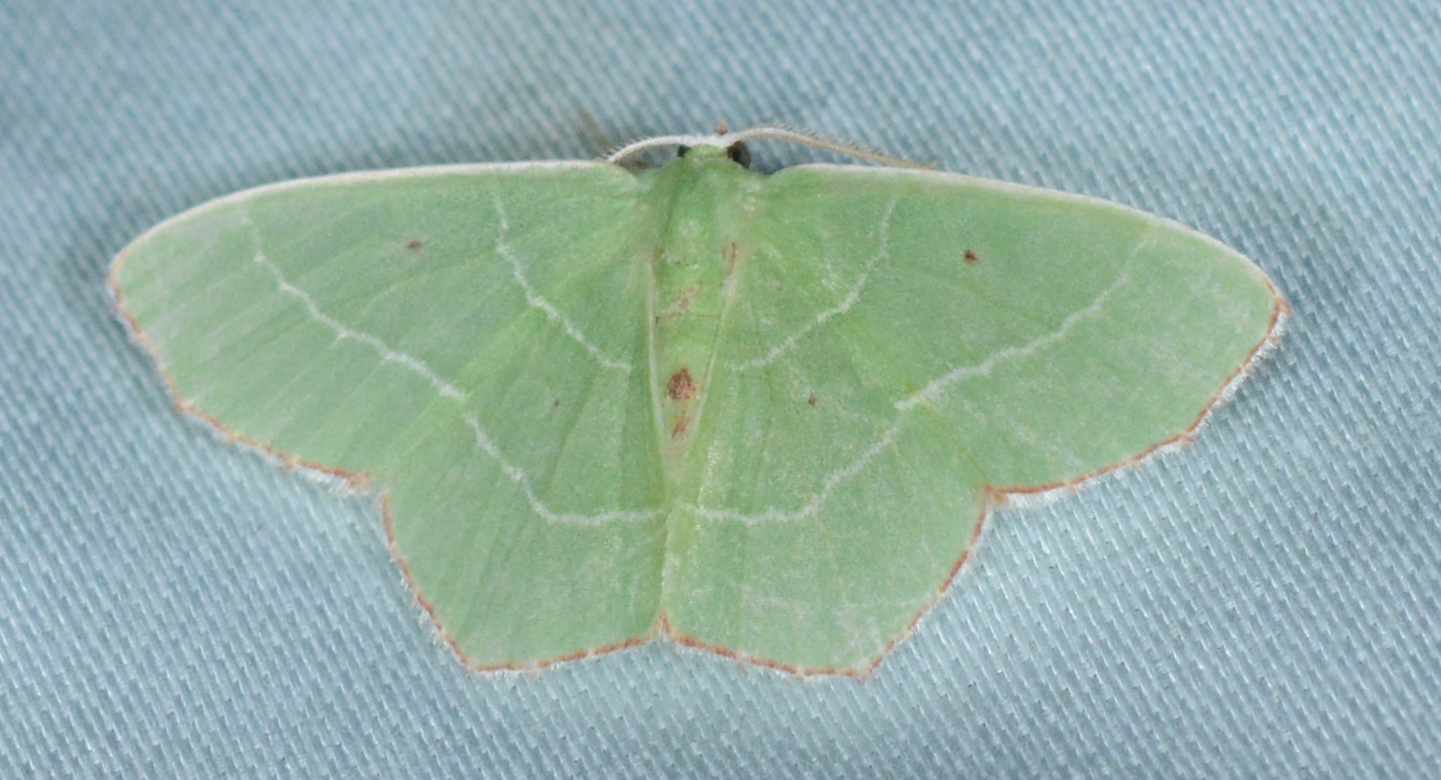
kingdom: Animalia
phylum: Arthropoda
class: Insecta
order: Lepidoptera
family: Geometridae
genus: Nemoria
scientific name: Nemoria saturiba
